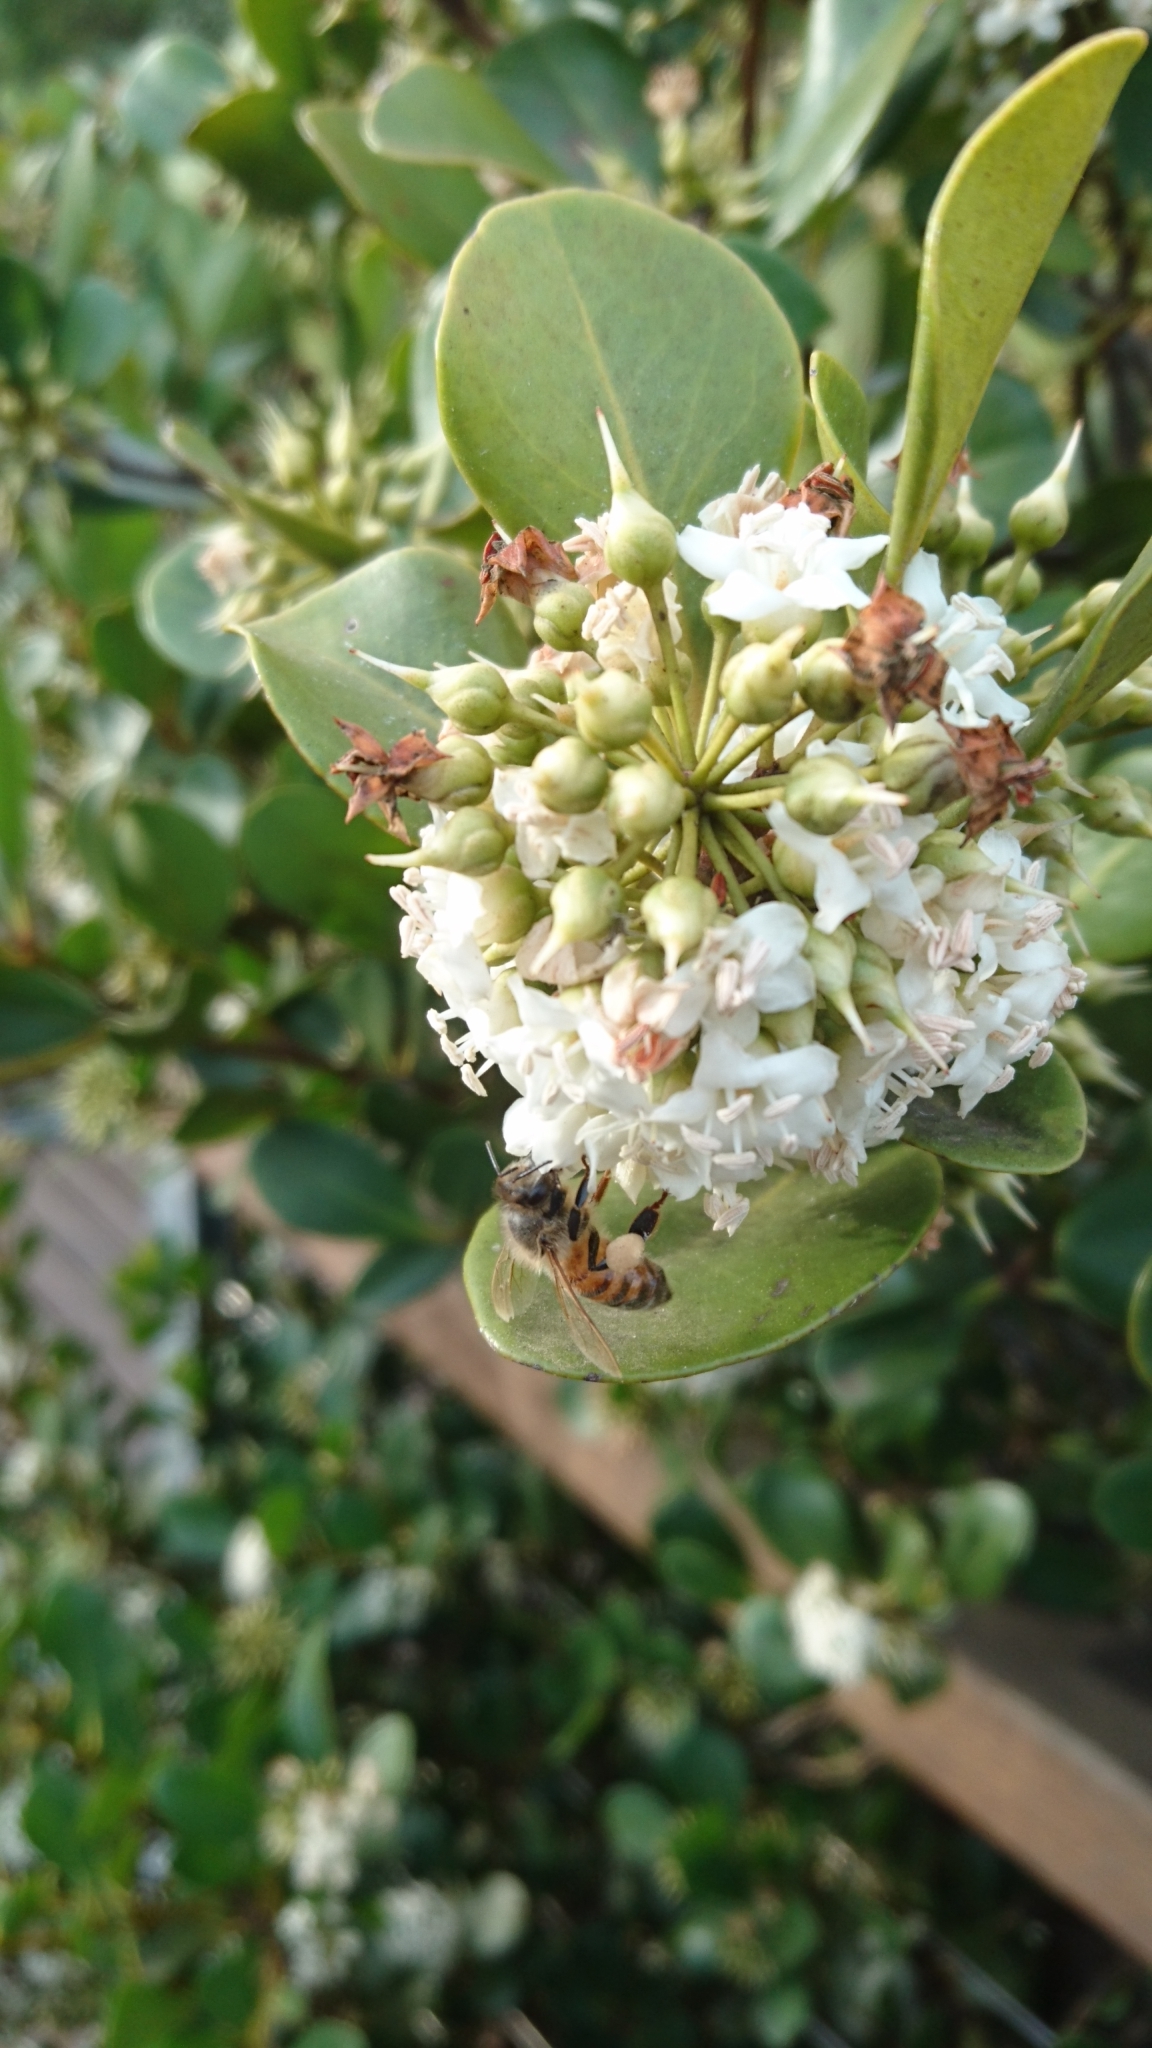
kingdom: Animalia
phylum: Arthropoda
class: Insecta
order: Hymenoptera
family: Apidae
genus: Apis
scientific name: Apis mellifera
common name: Honey bee
